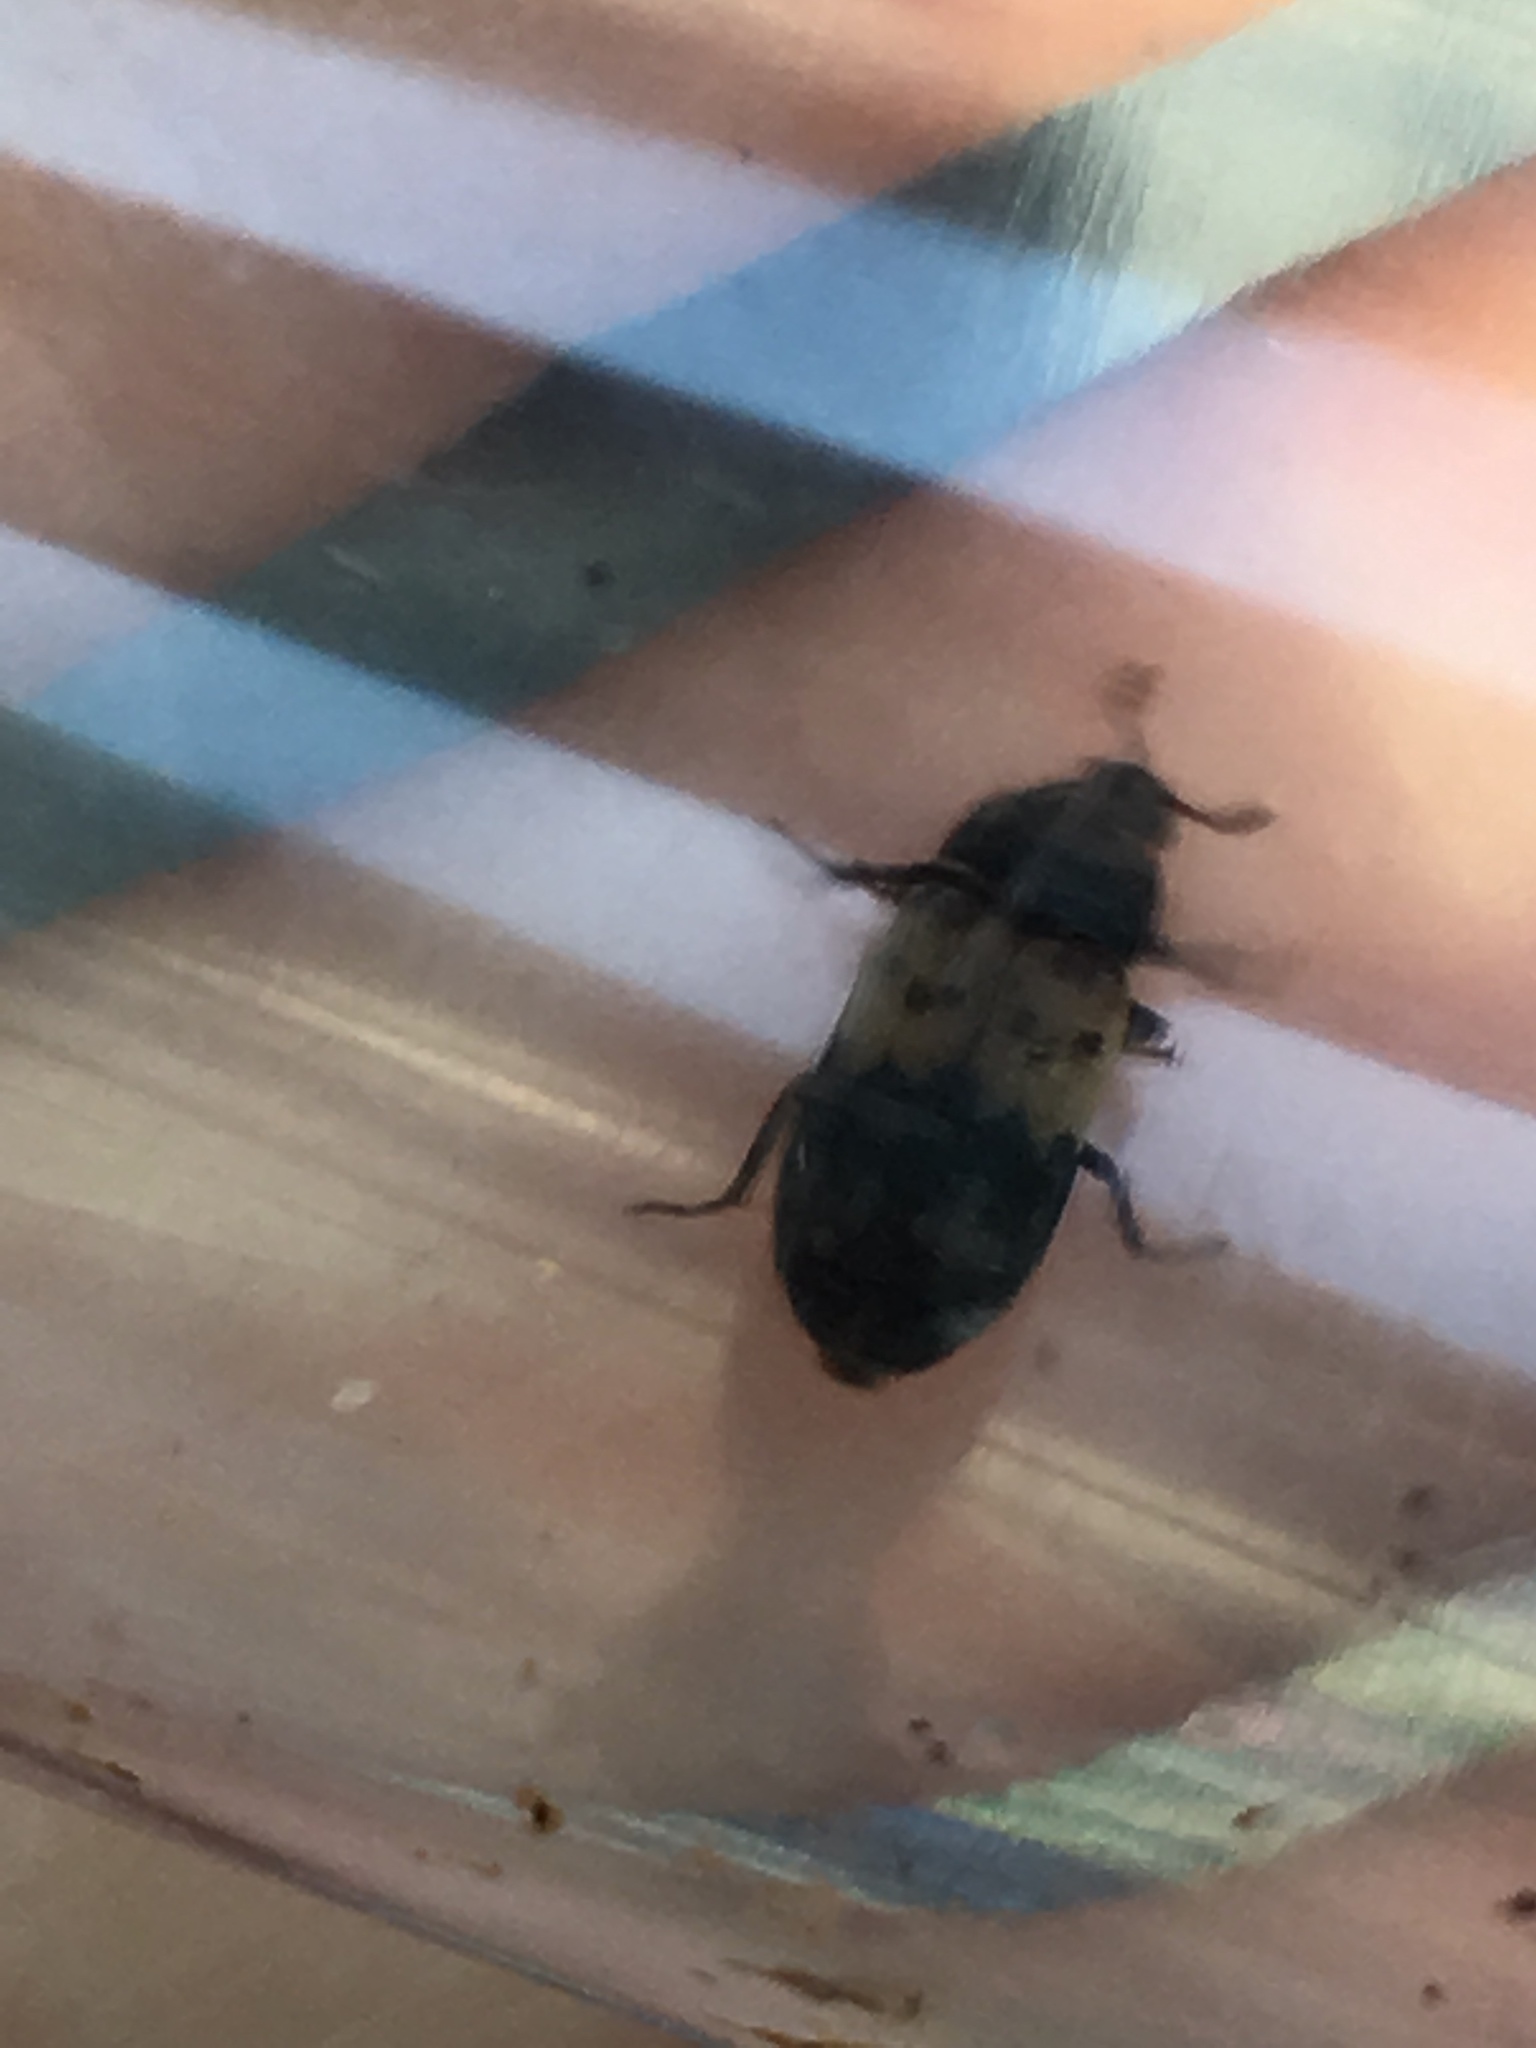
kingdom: Animalia
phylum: Arthropoda
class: Insecta
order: Coleoptera
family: Dermestidae
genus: Dermestes
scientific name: Dermestes lardarius
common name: Larder beetle
